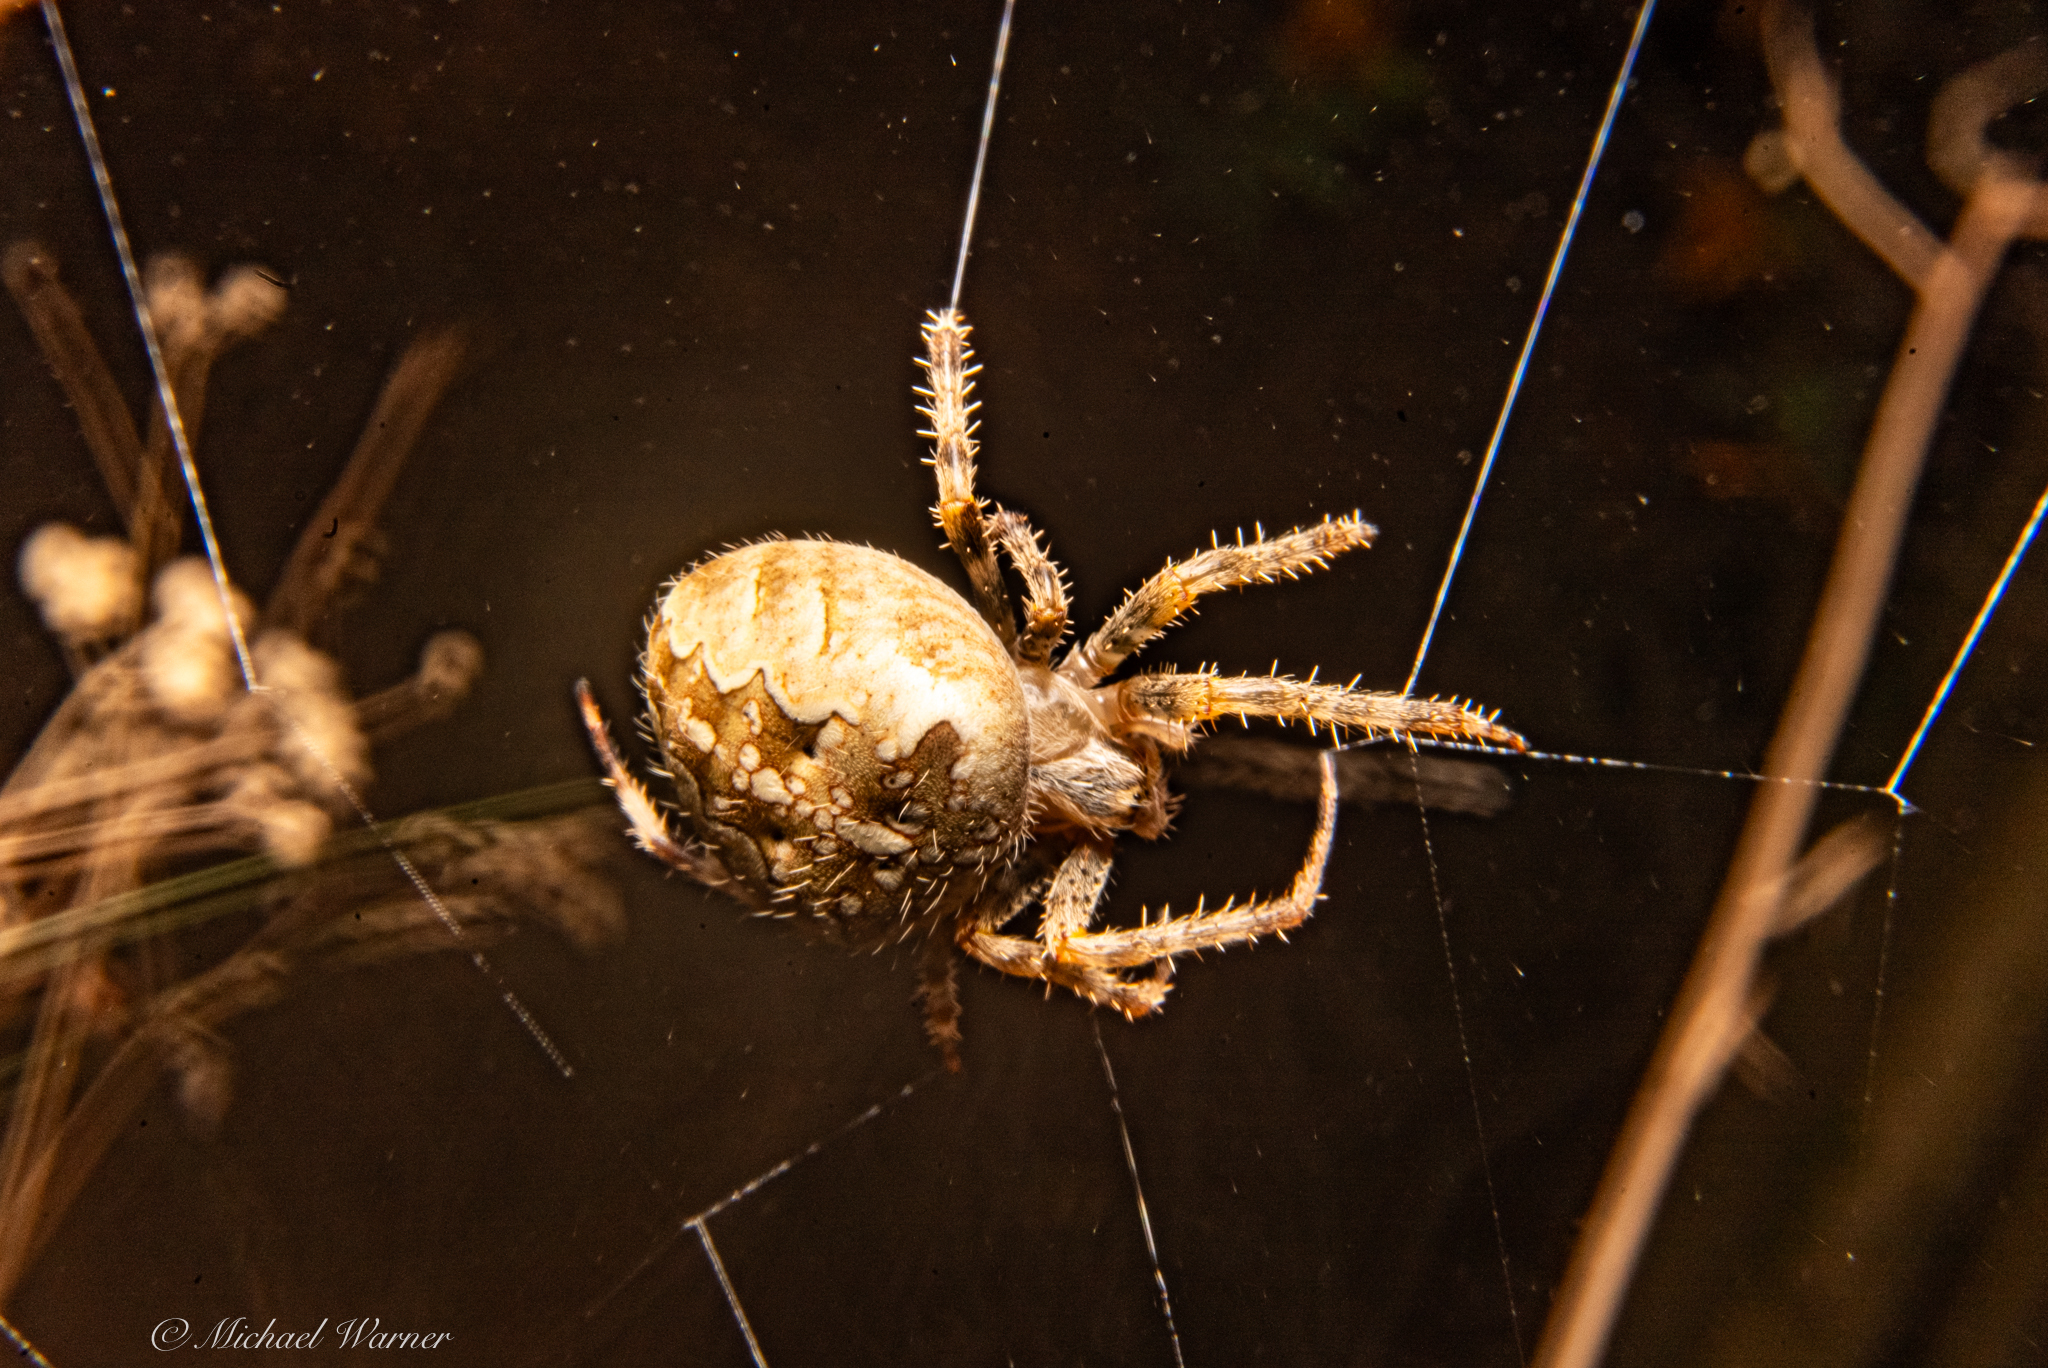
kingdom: Animalia
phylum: Arthropoda
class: Arachnida
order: Araneae
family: Araneidae
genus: Araneus
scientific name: Araneus diadematus
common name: Cross orbweaver
